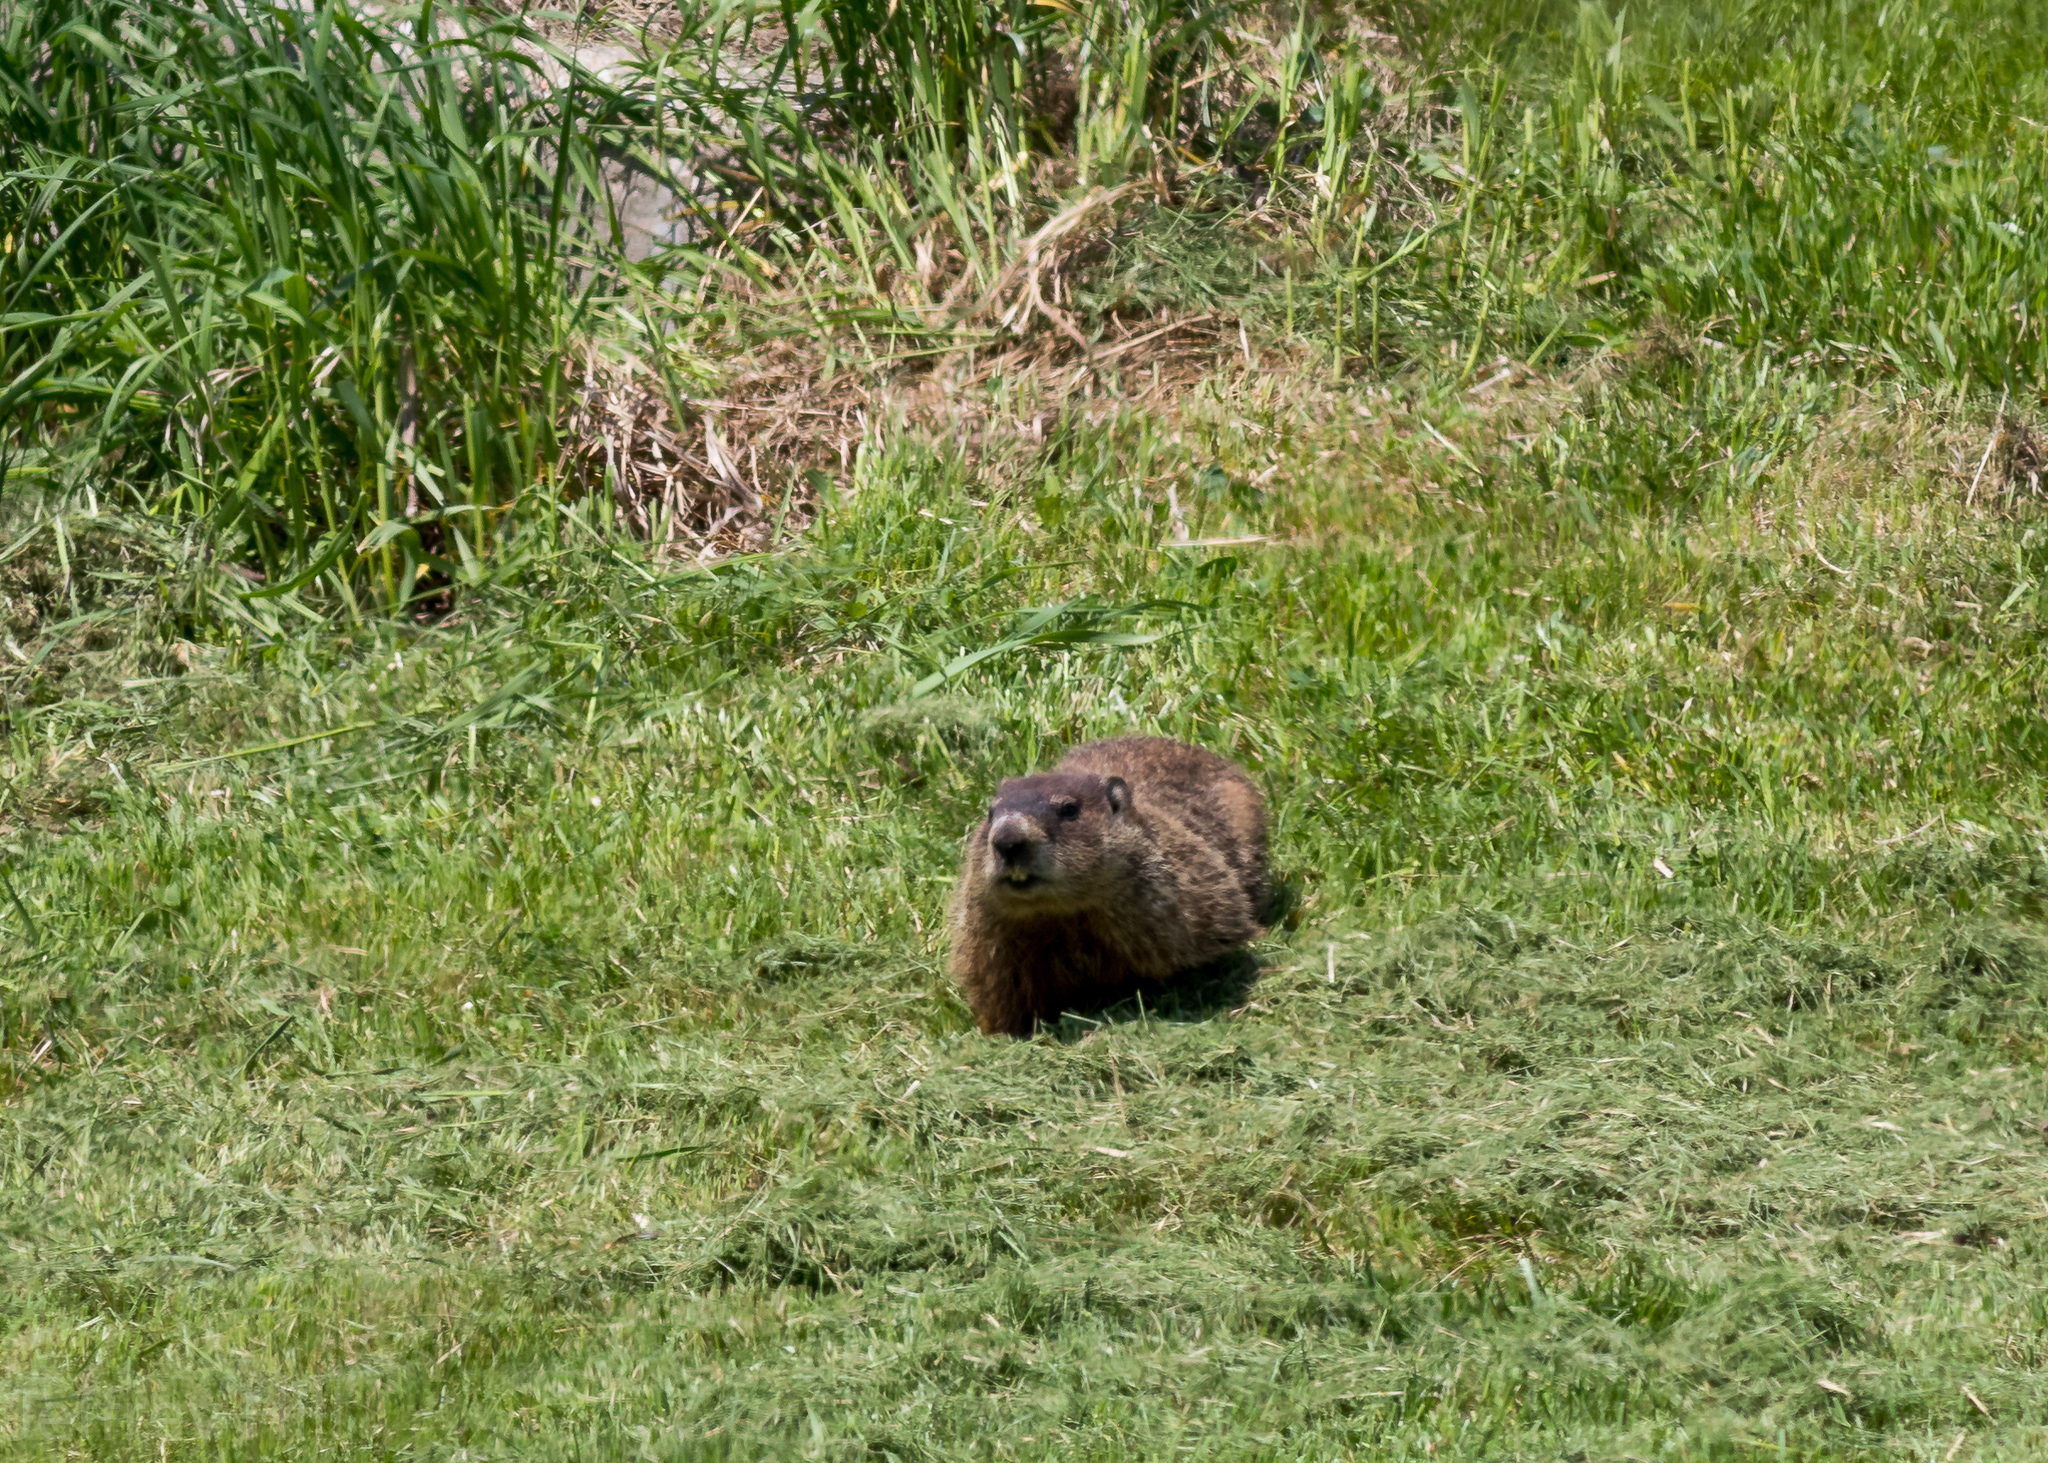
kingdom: Animalia
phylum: Chordata
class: Mammalia
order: Rodentia
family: Sciuridae
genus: Marmota
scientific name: Marmota monax
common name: Groundhog
